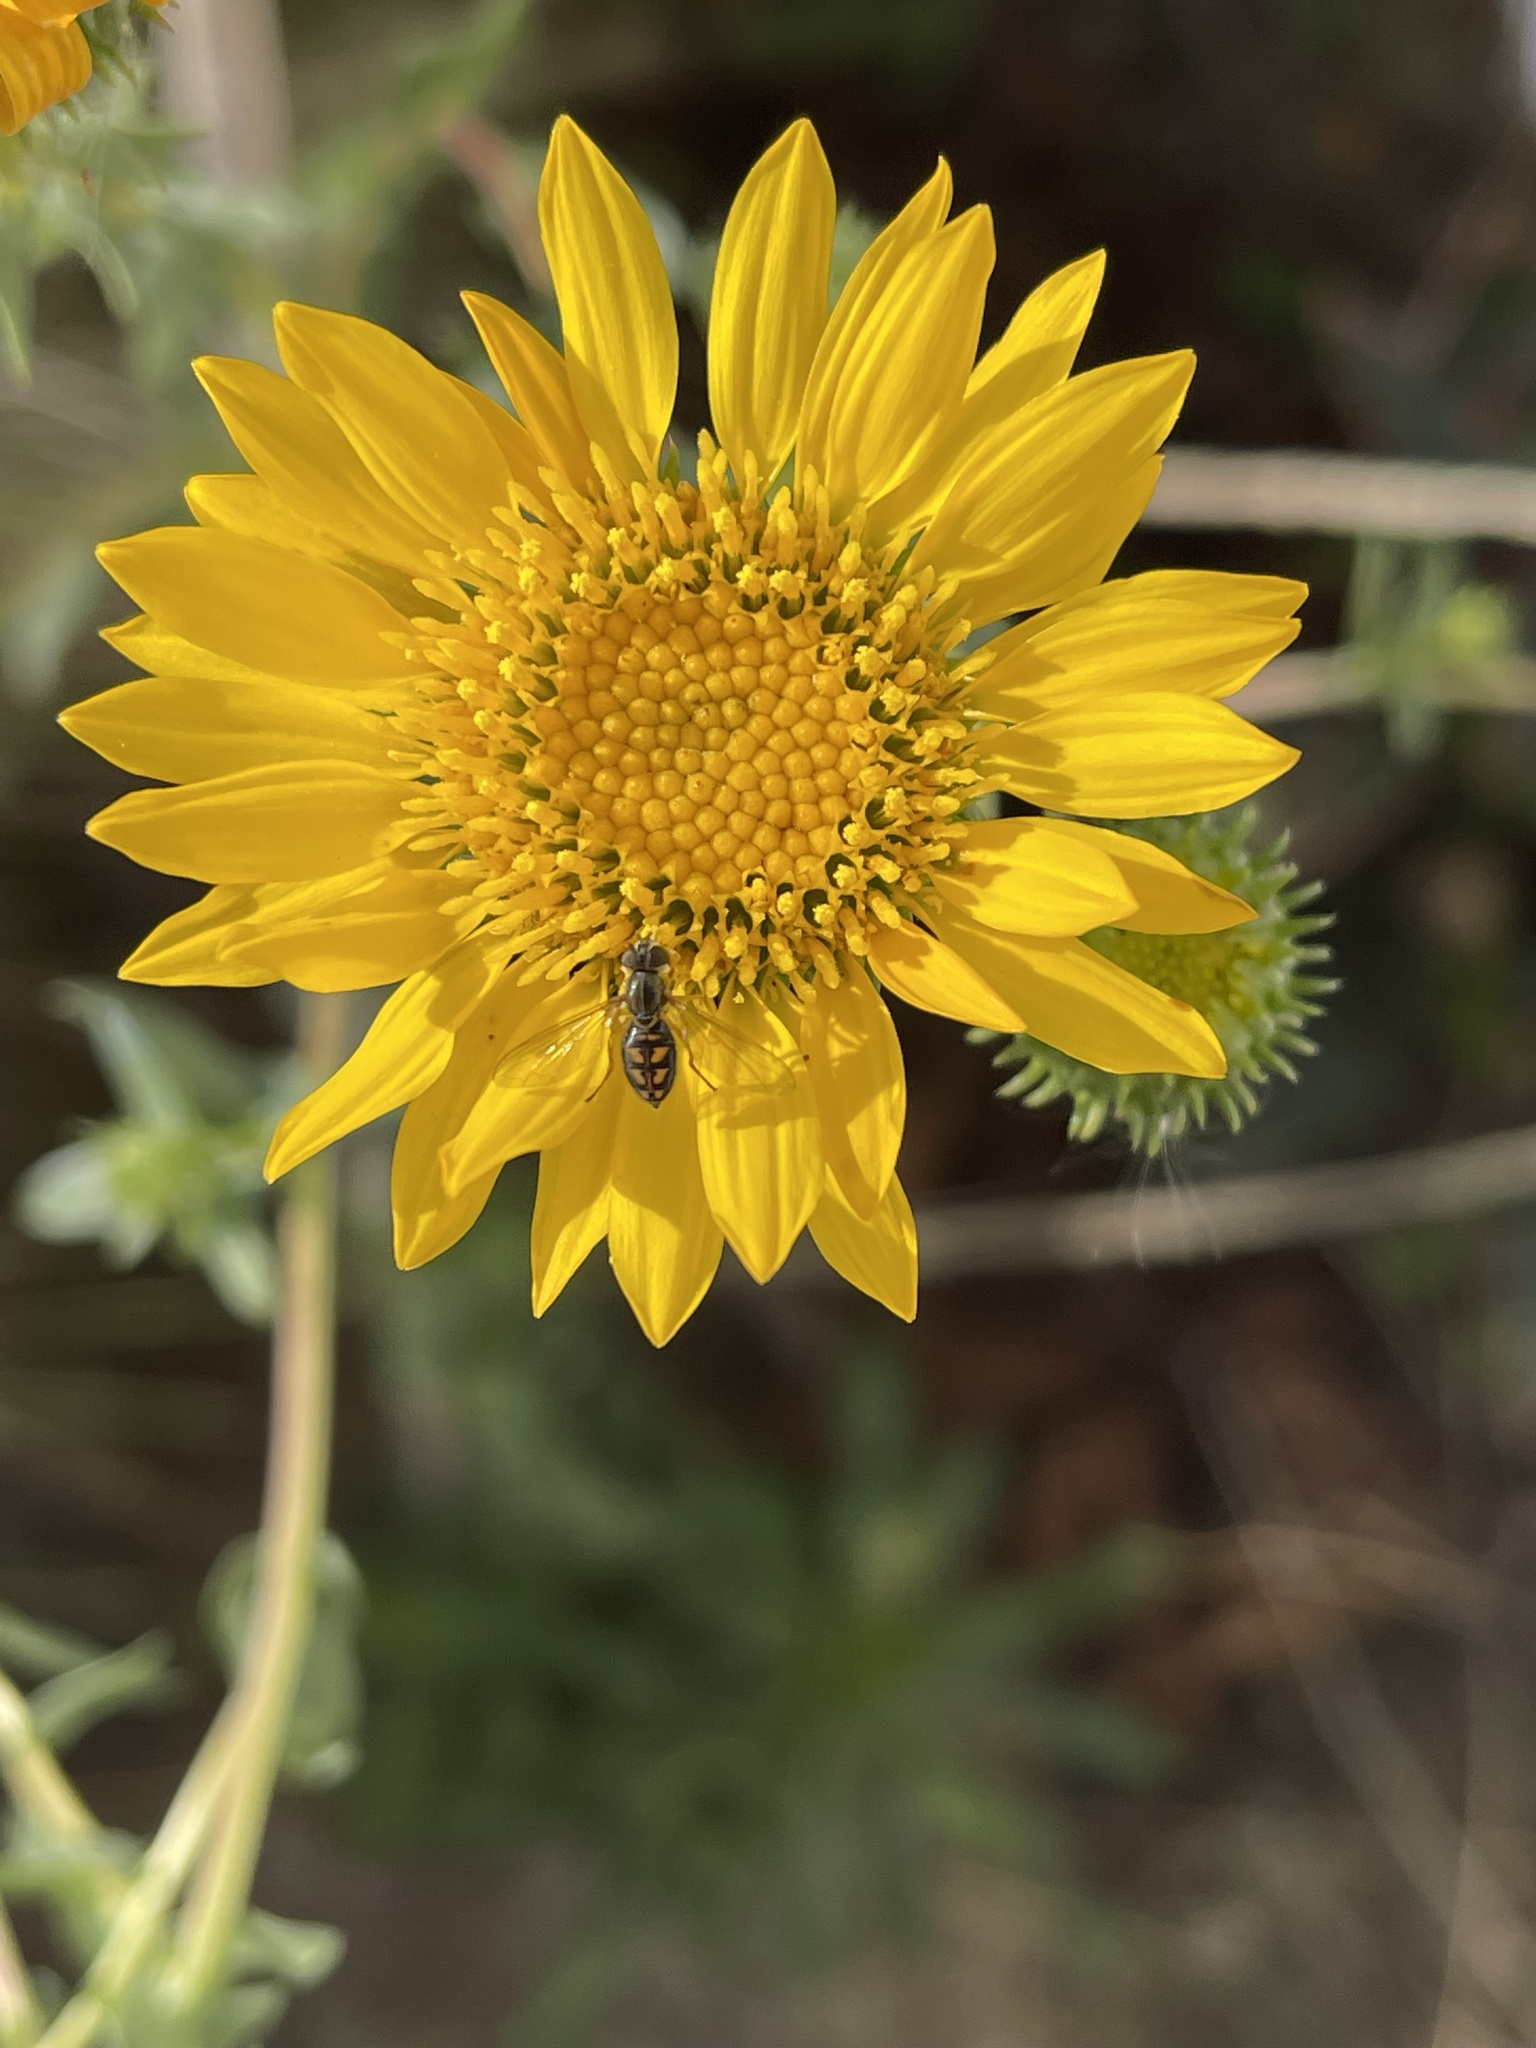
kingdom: Animalia
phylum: Arthropoda
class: Insecta
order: Diptera
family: Syrphidae
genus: Toxomerus
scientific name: Toxomerus marginatus
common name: Syrphid fly
